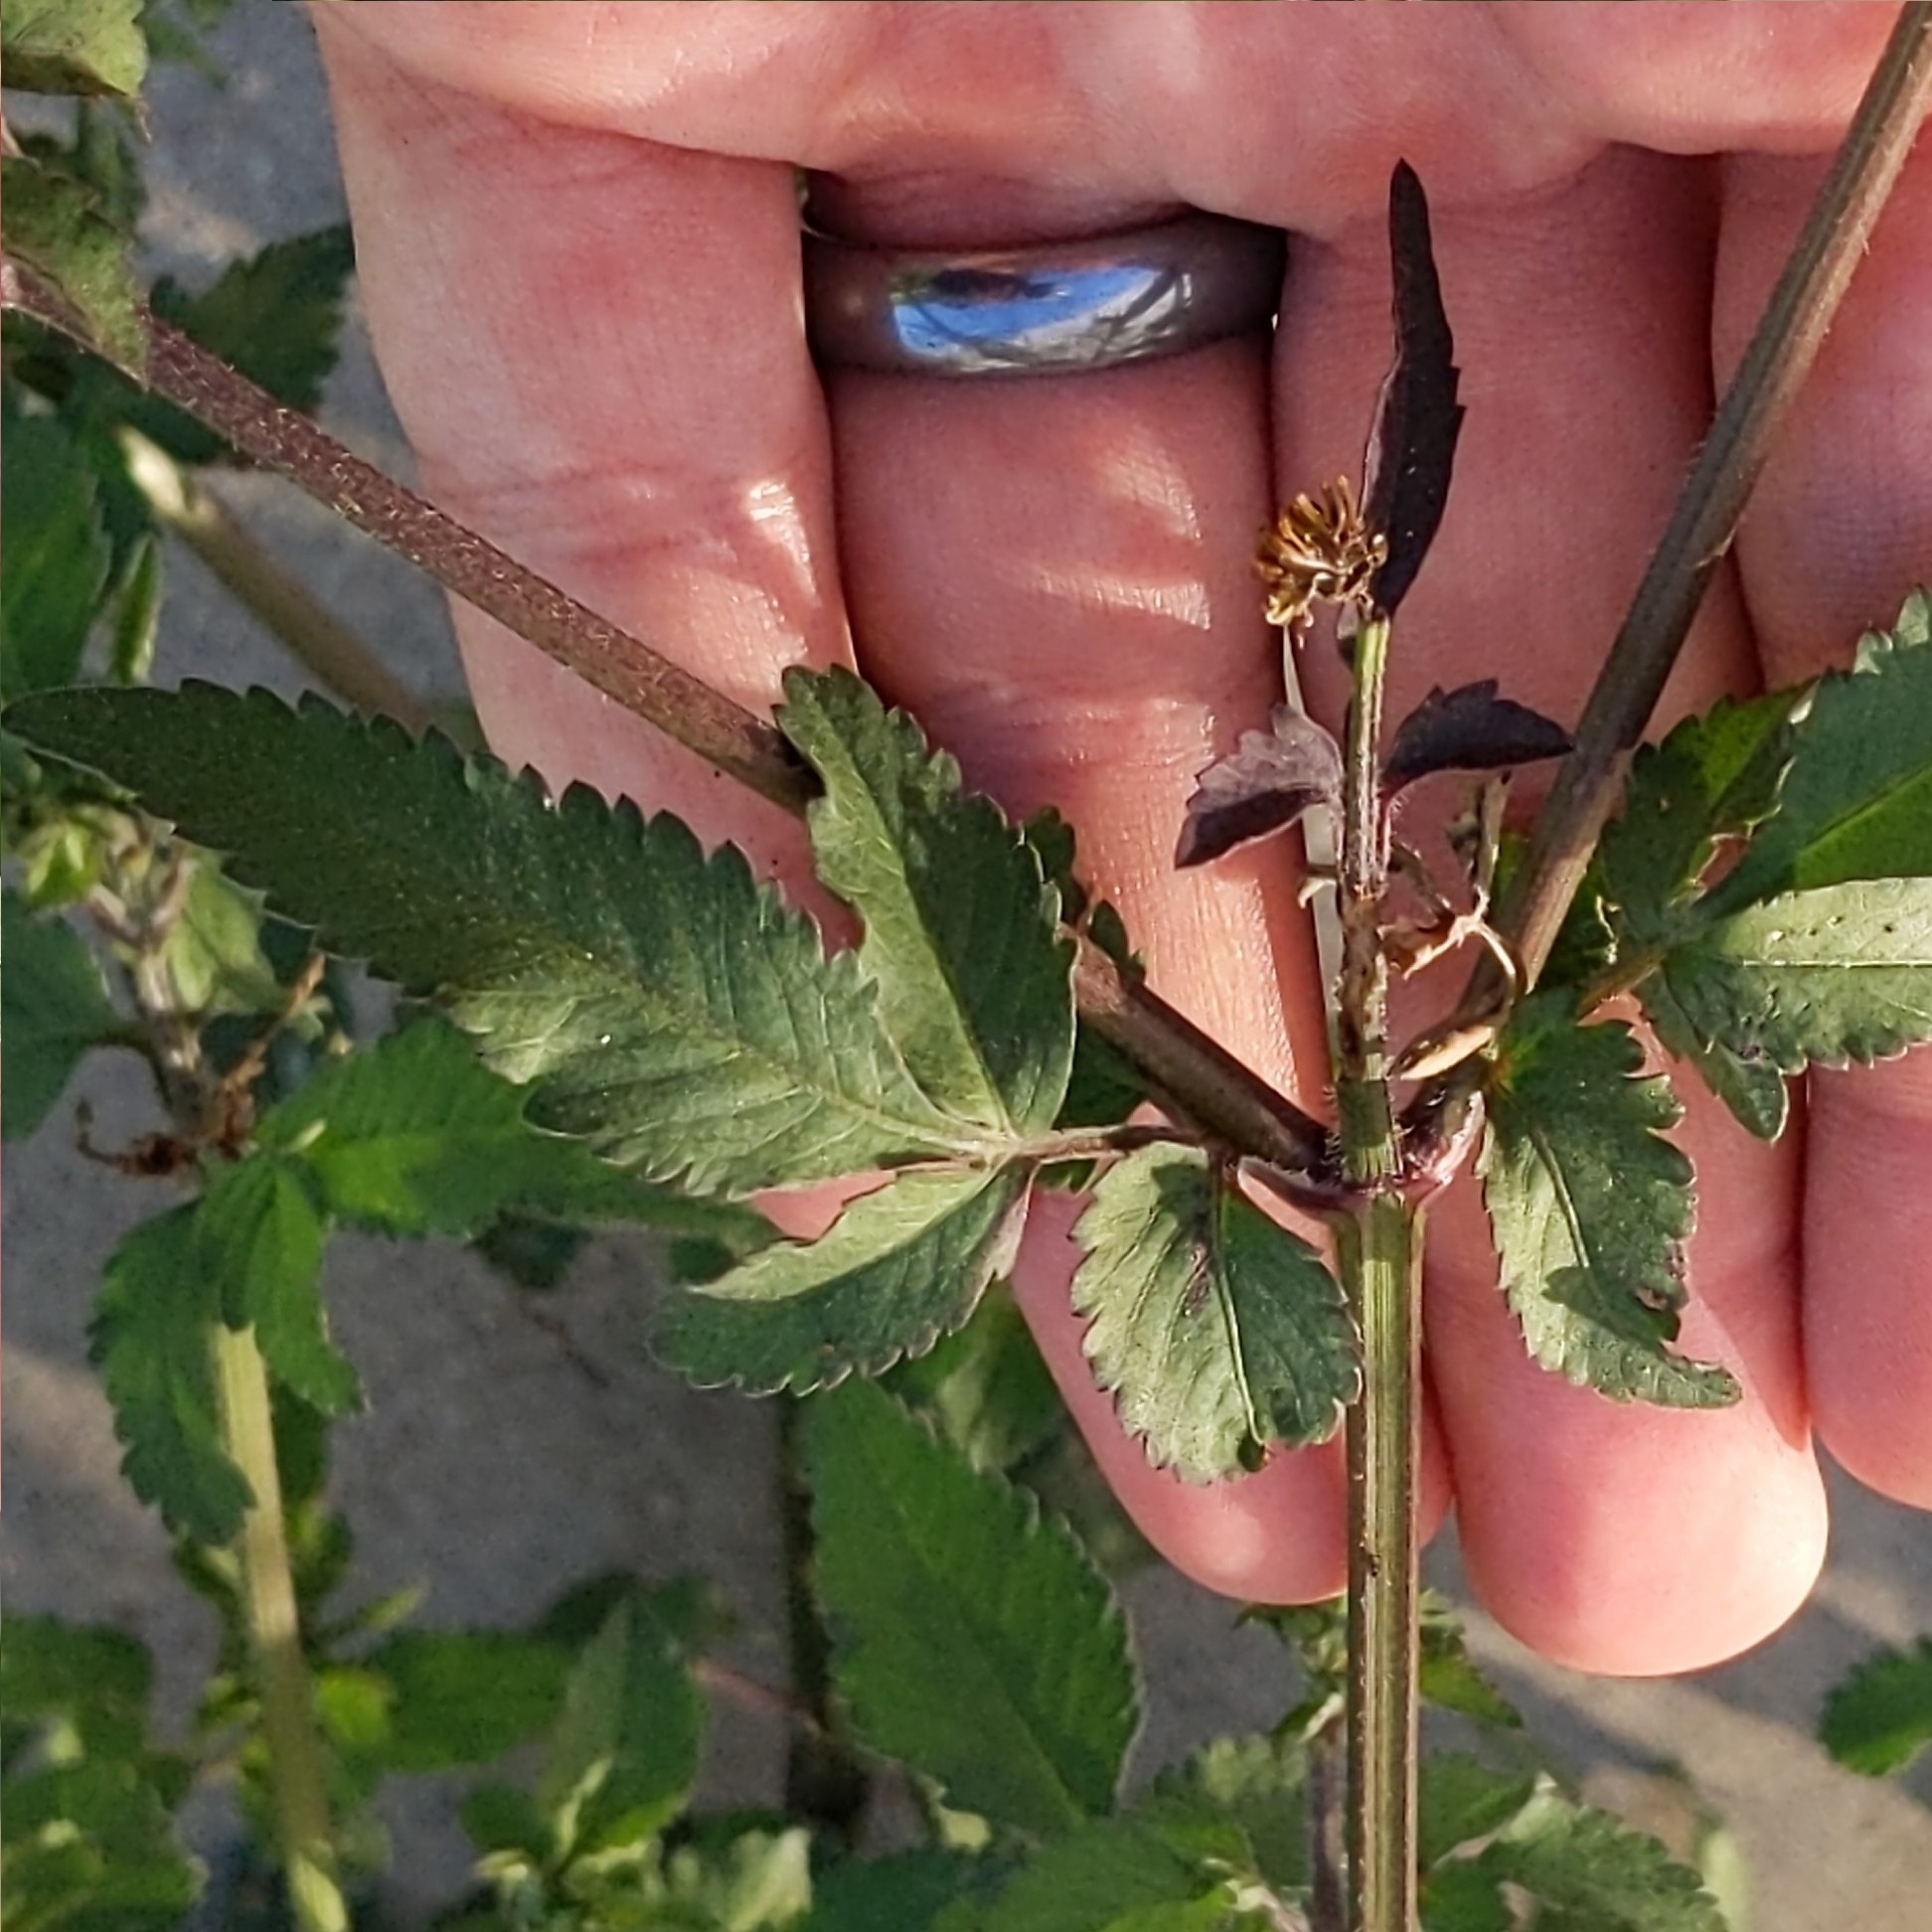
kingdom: Plantae
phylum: Tracheophyta
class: Magnoliopsida
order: Asterales
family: Asteraceae
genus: Bidens
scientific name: Bidens pilosa
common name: Black-jack
